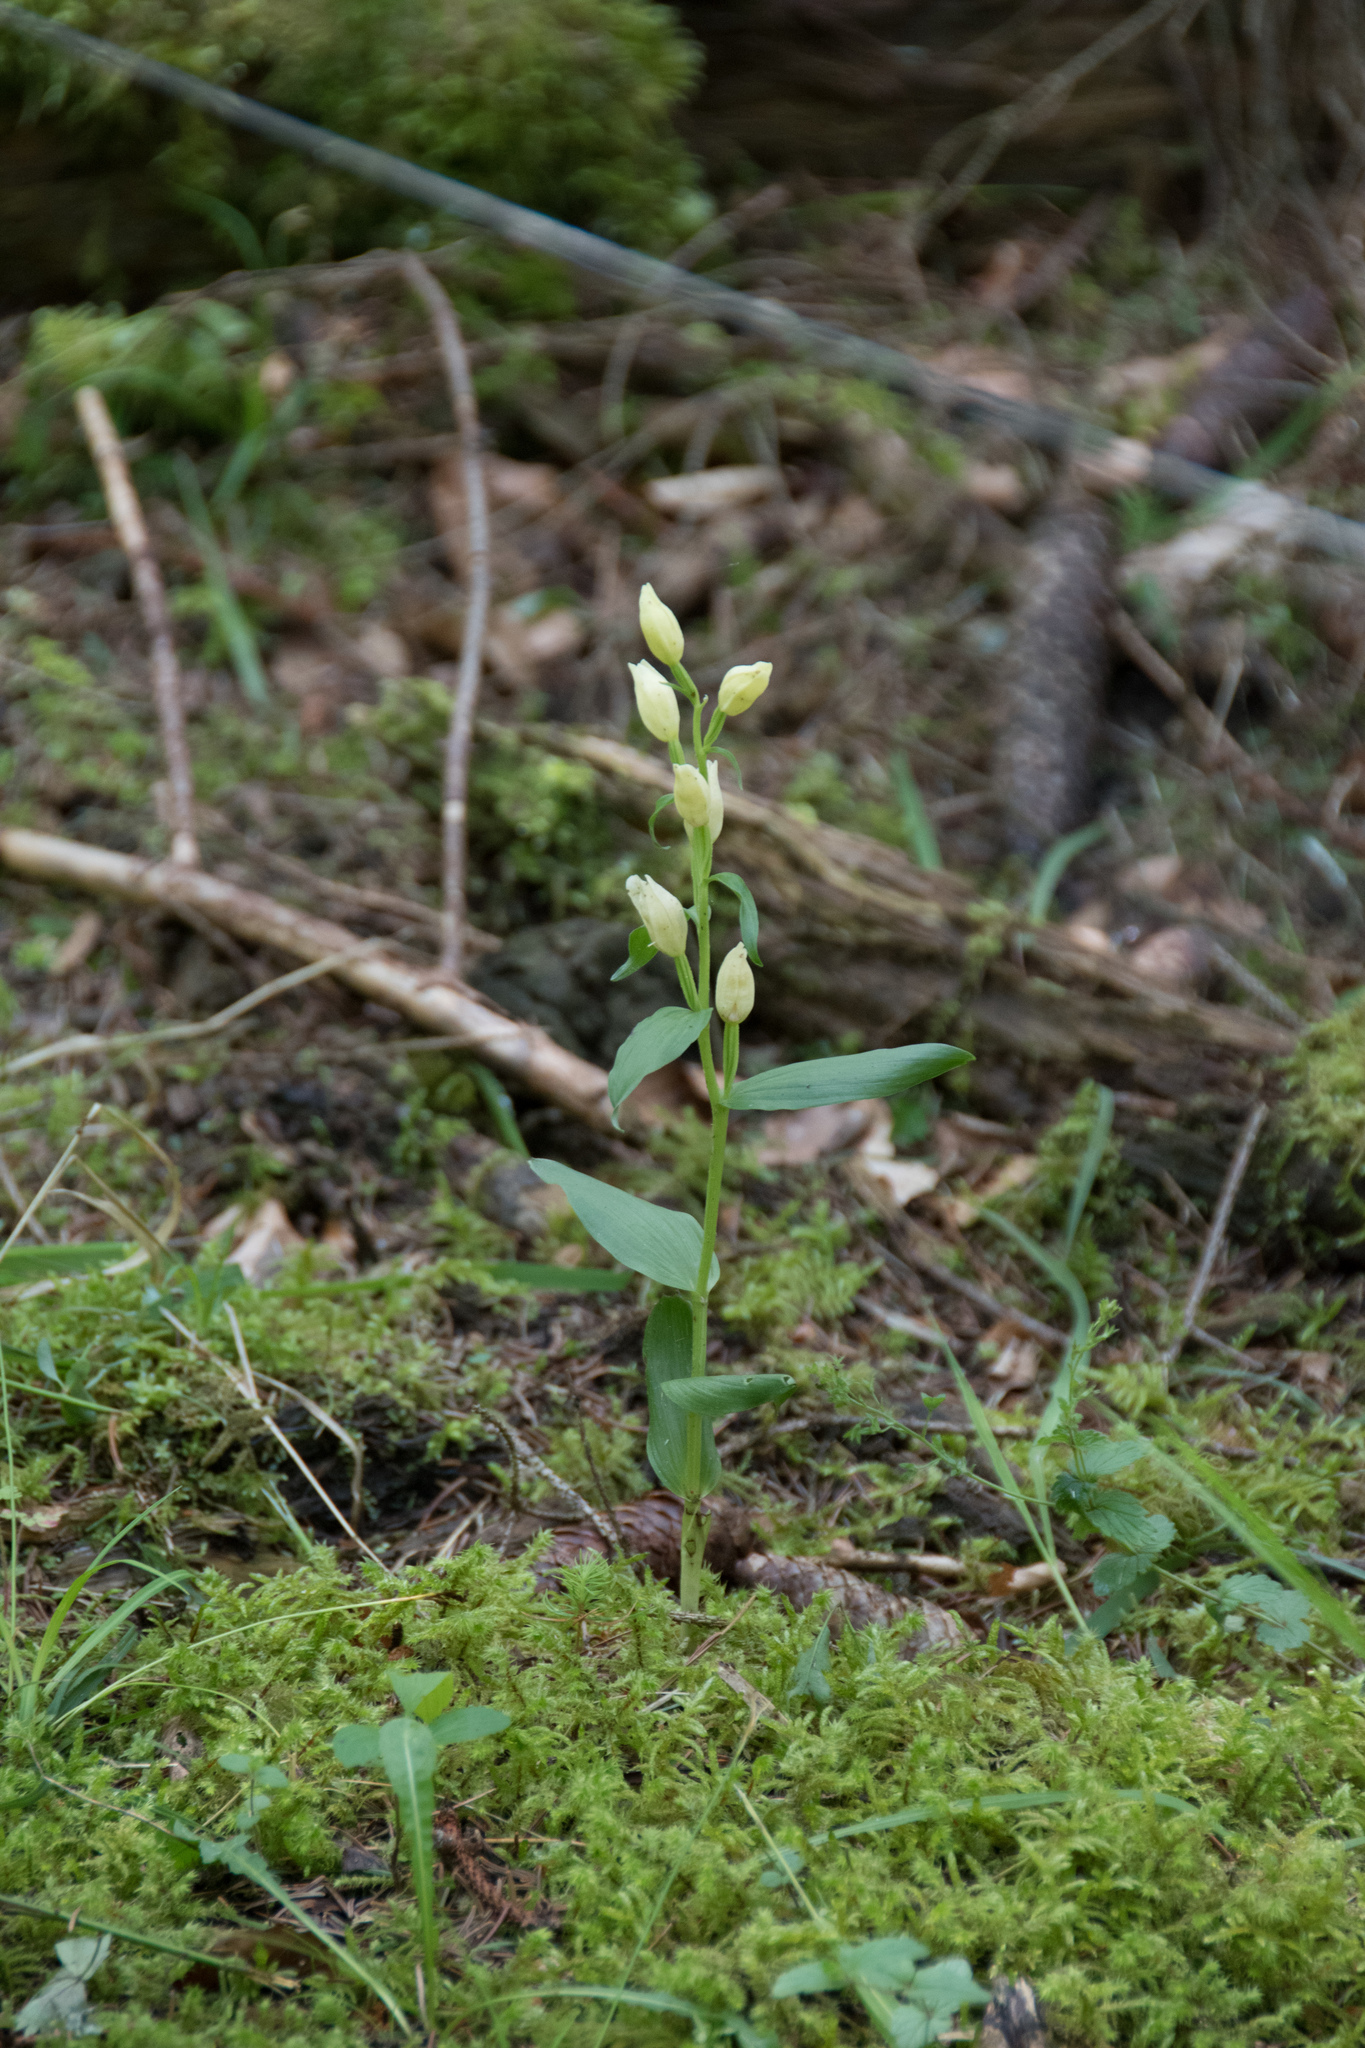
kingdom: Plantae
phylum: Tracheophyta
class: Liliopsida
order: Asparagales
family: Orchidaceae
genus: Cephalanthera
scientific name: Cephalanthera damasonium
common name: White helleborine
